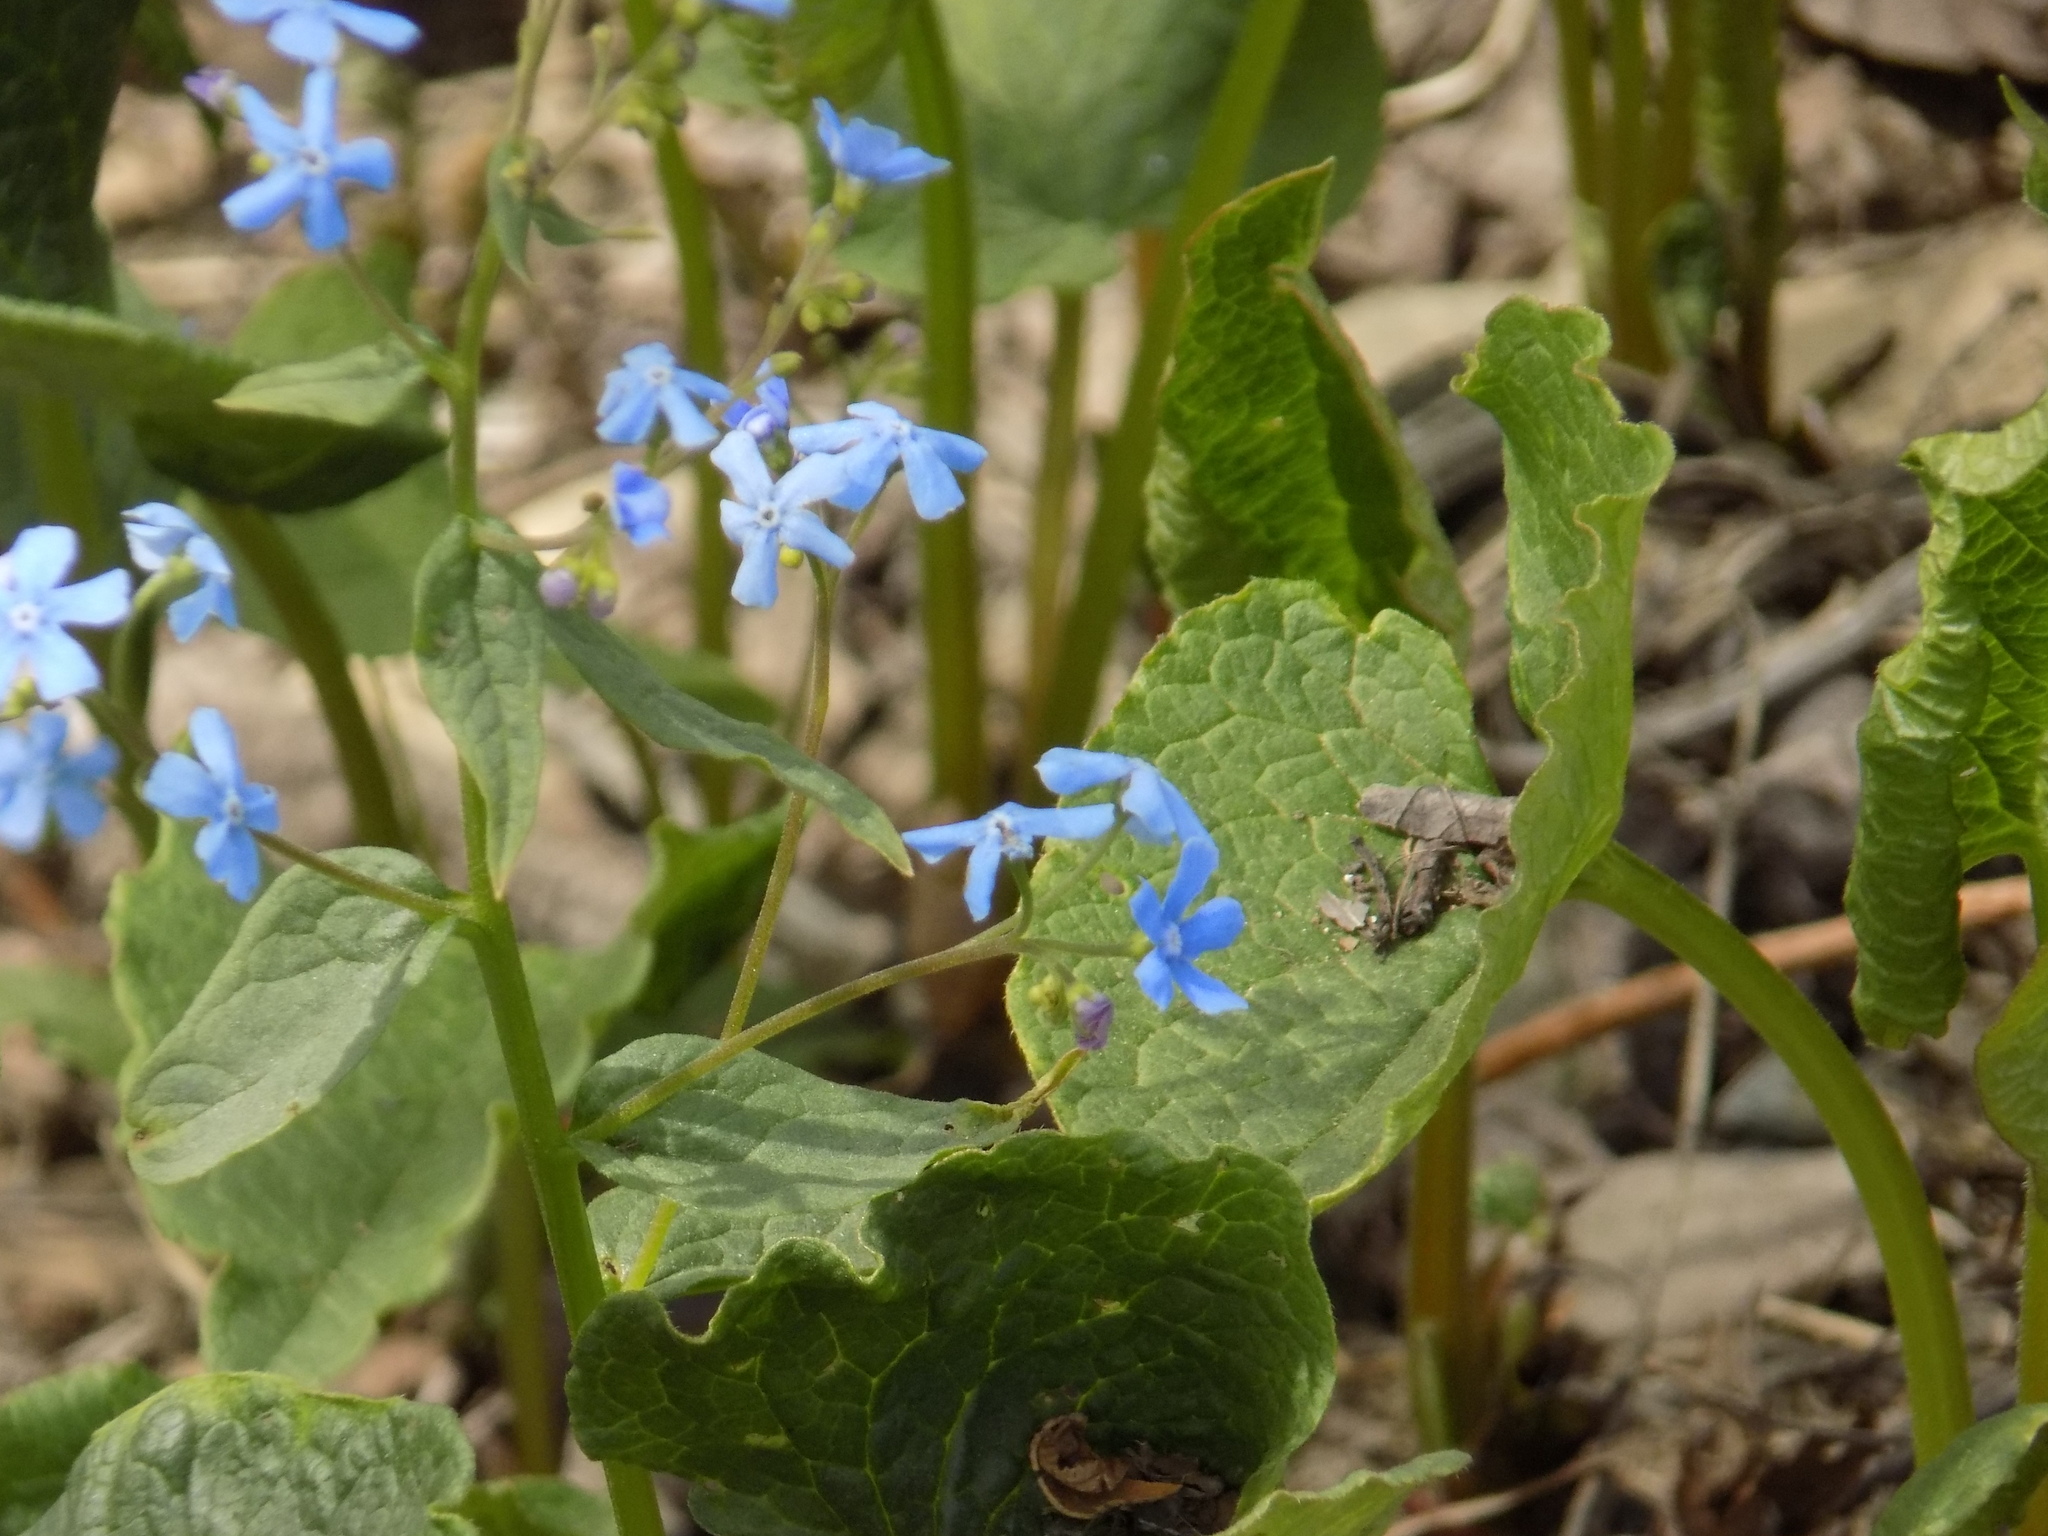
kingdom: Plantae
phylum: Tracheophyta
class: Magnoliopsida
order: Boraginales
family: Boraginaceae
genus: Brunnera
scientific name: Brunnera sibirica
